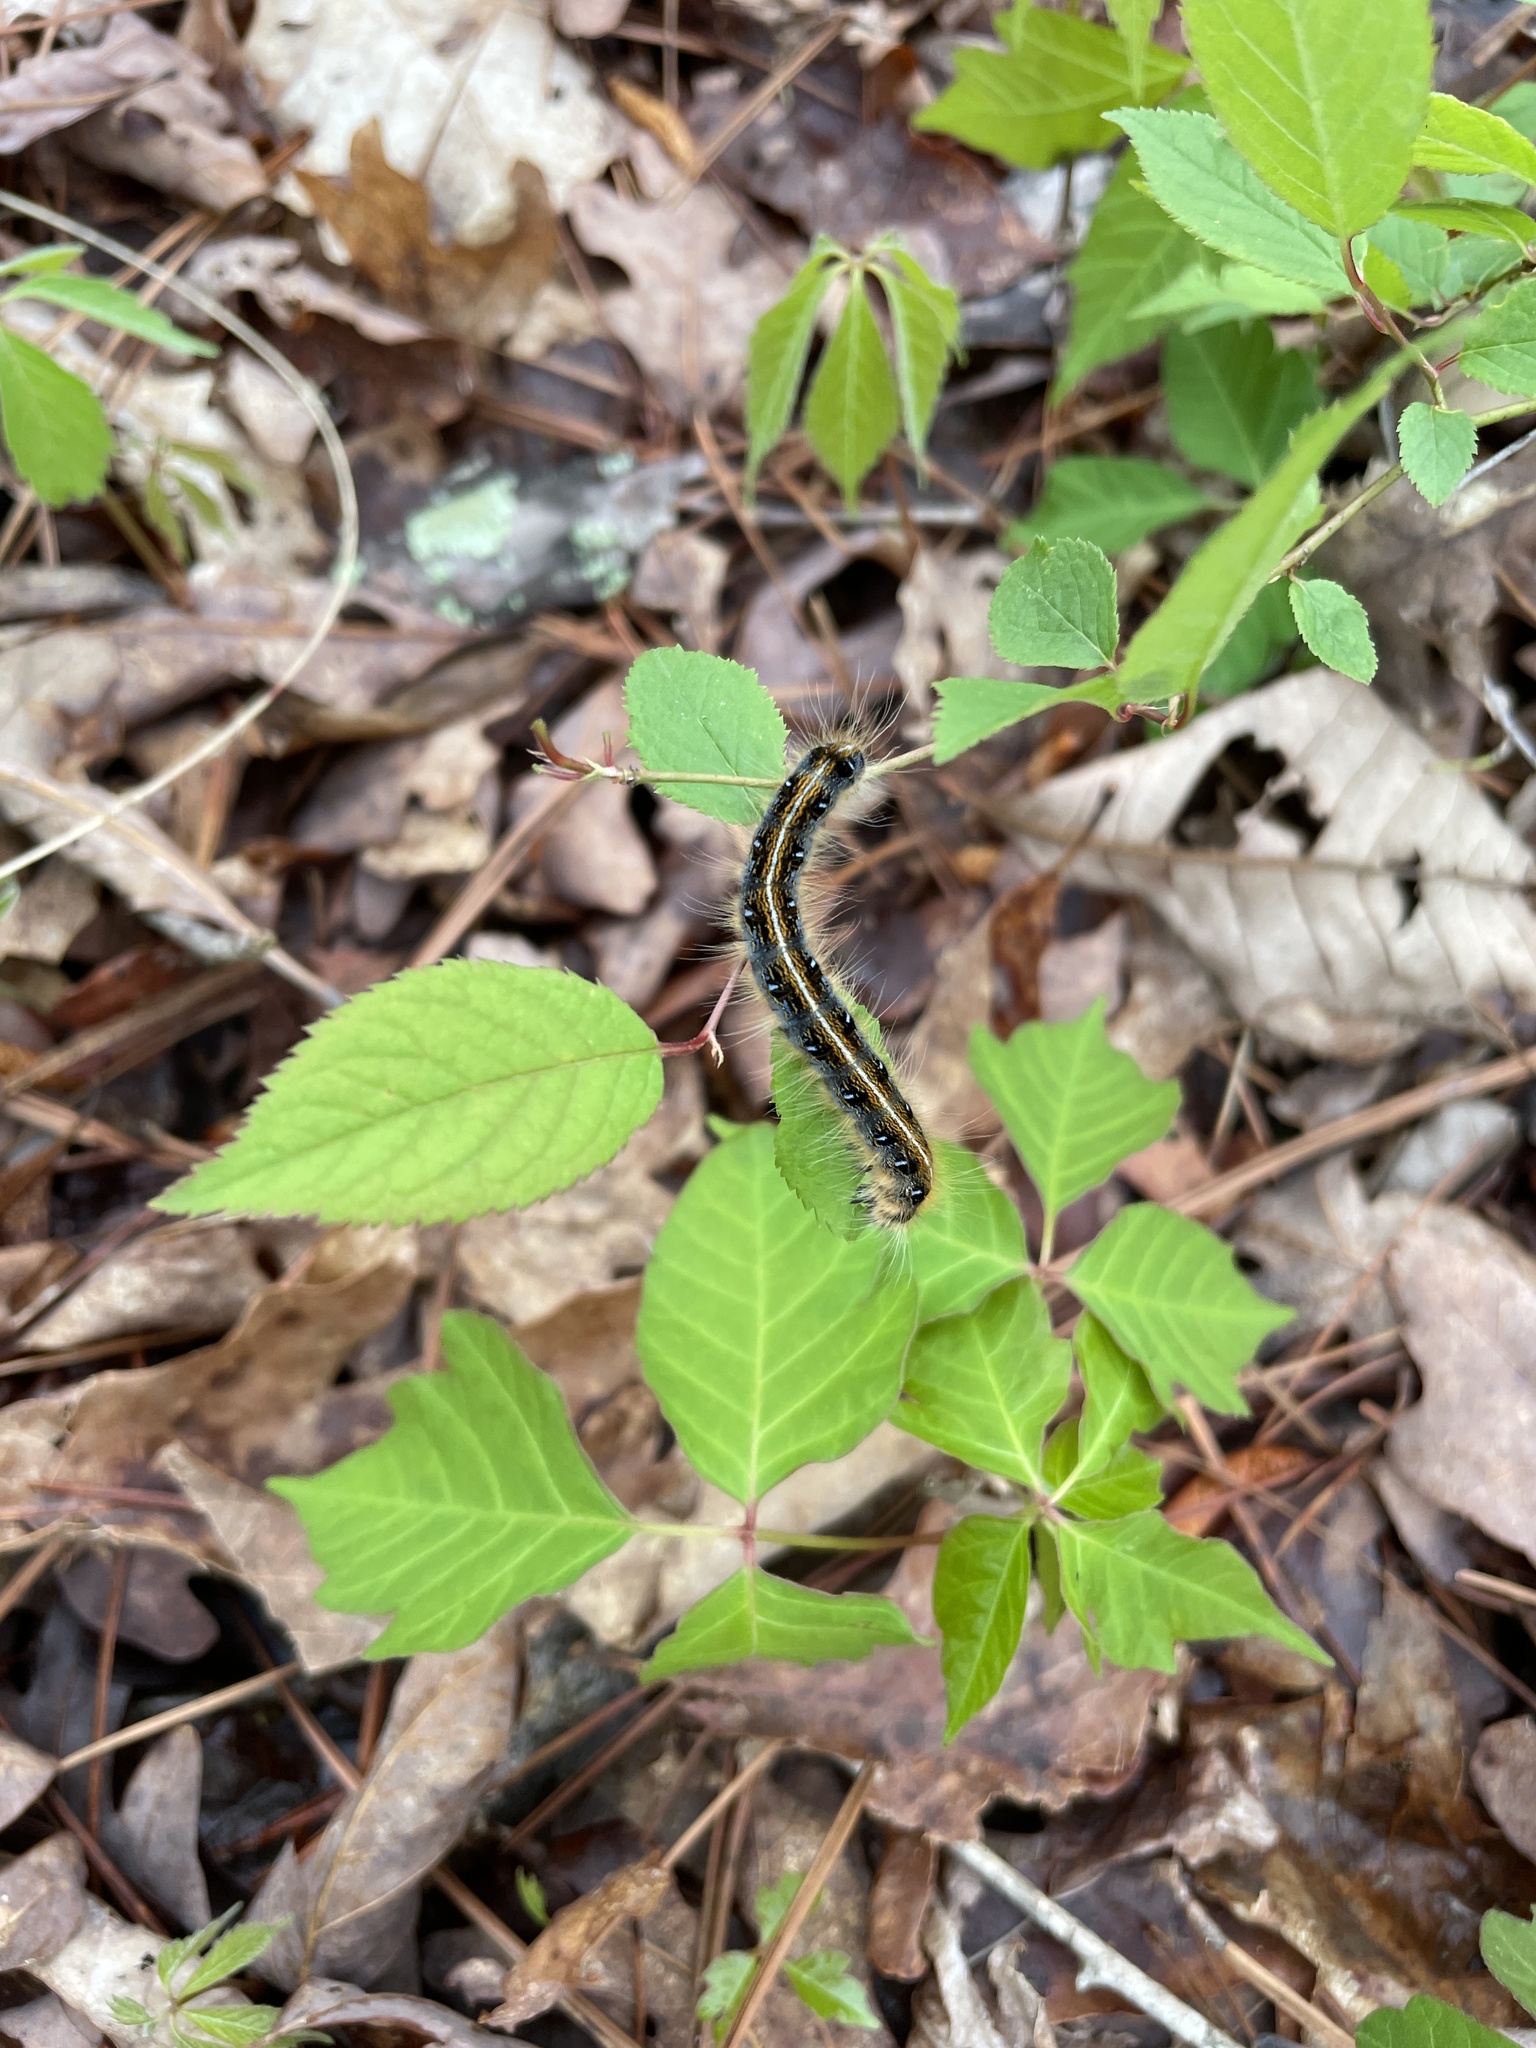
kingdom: Animalia
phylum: Arthropoda
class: Insecta
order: Lepidoptera
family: Lasiocampidae
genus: Malacosoma
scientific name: Malacosoma americana
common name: Eastern tent caterpillar moth
